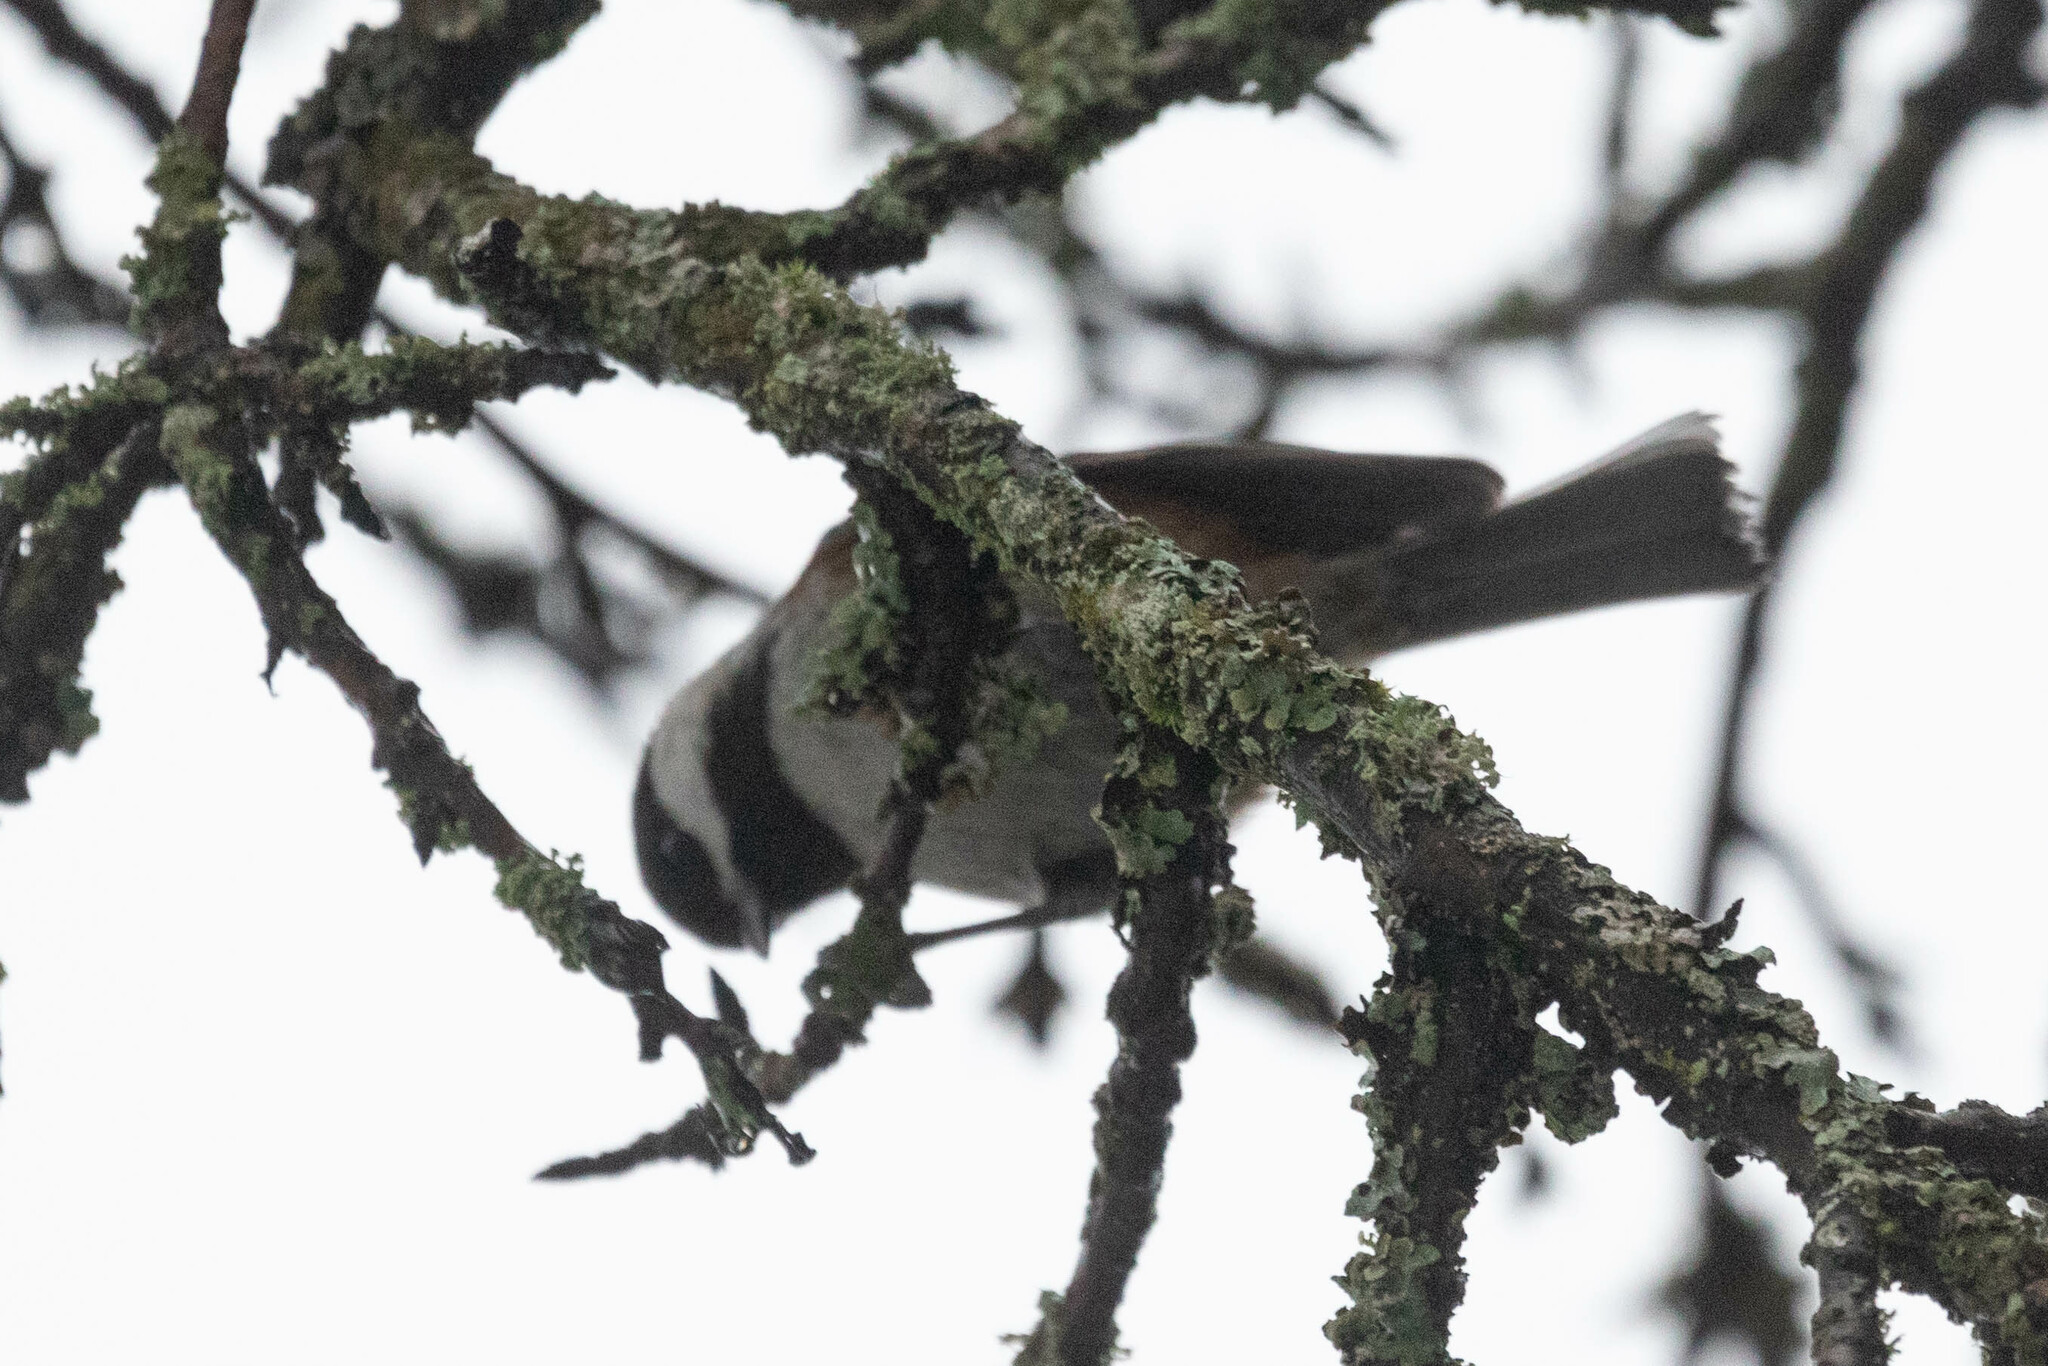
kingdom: Animalia
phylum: Chordata
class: Aves
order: Passeriformes
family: Paridae
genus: Poecile
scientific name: Poecile rufescens
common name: Chestnut-backed chickadee
